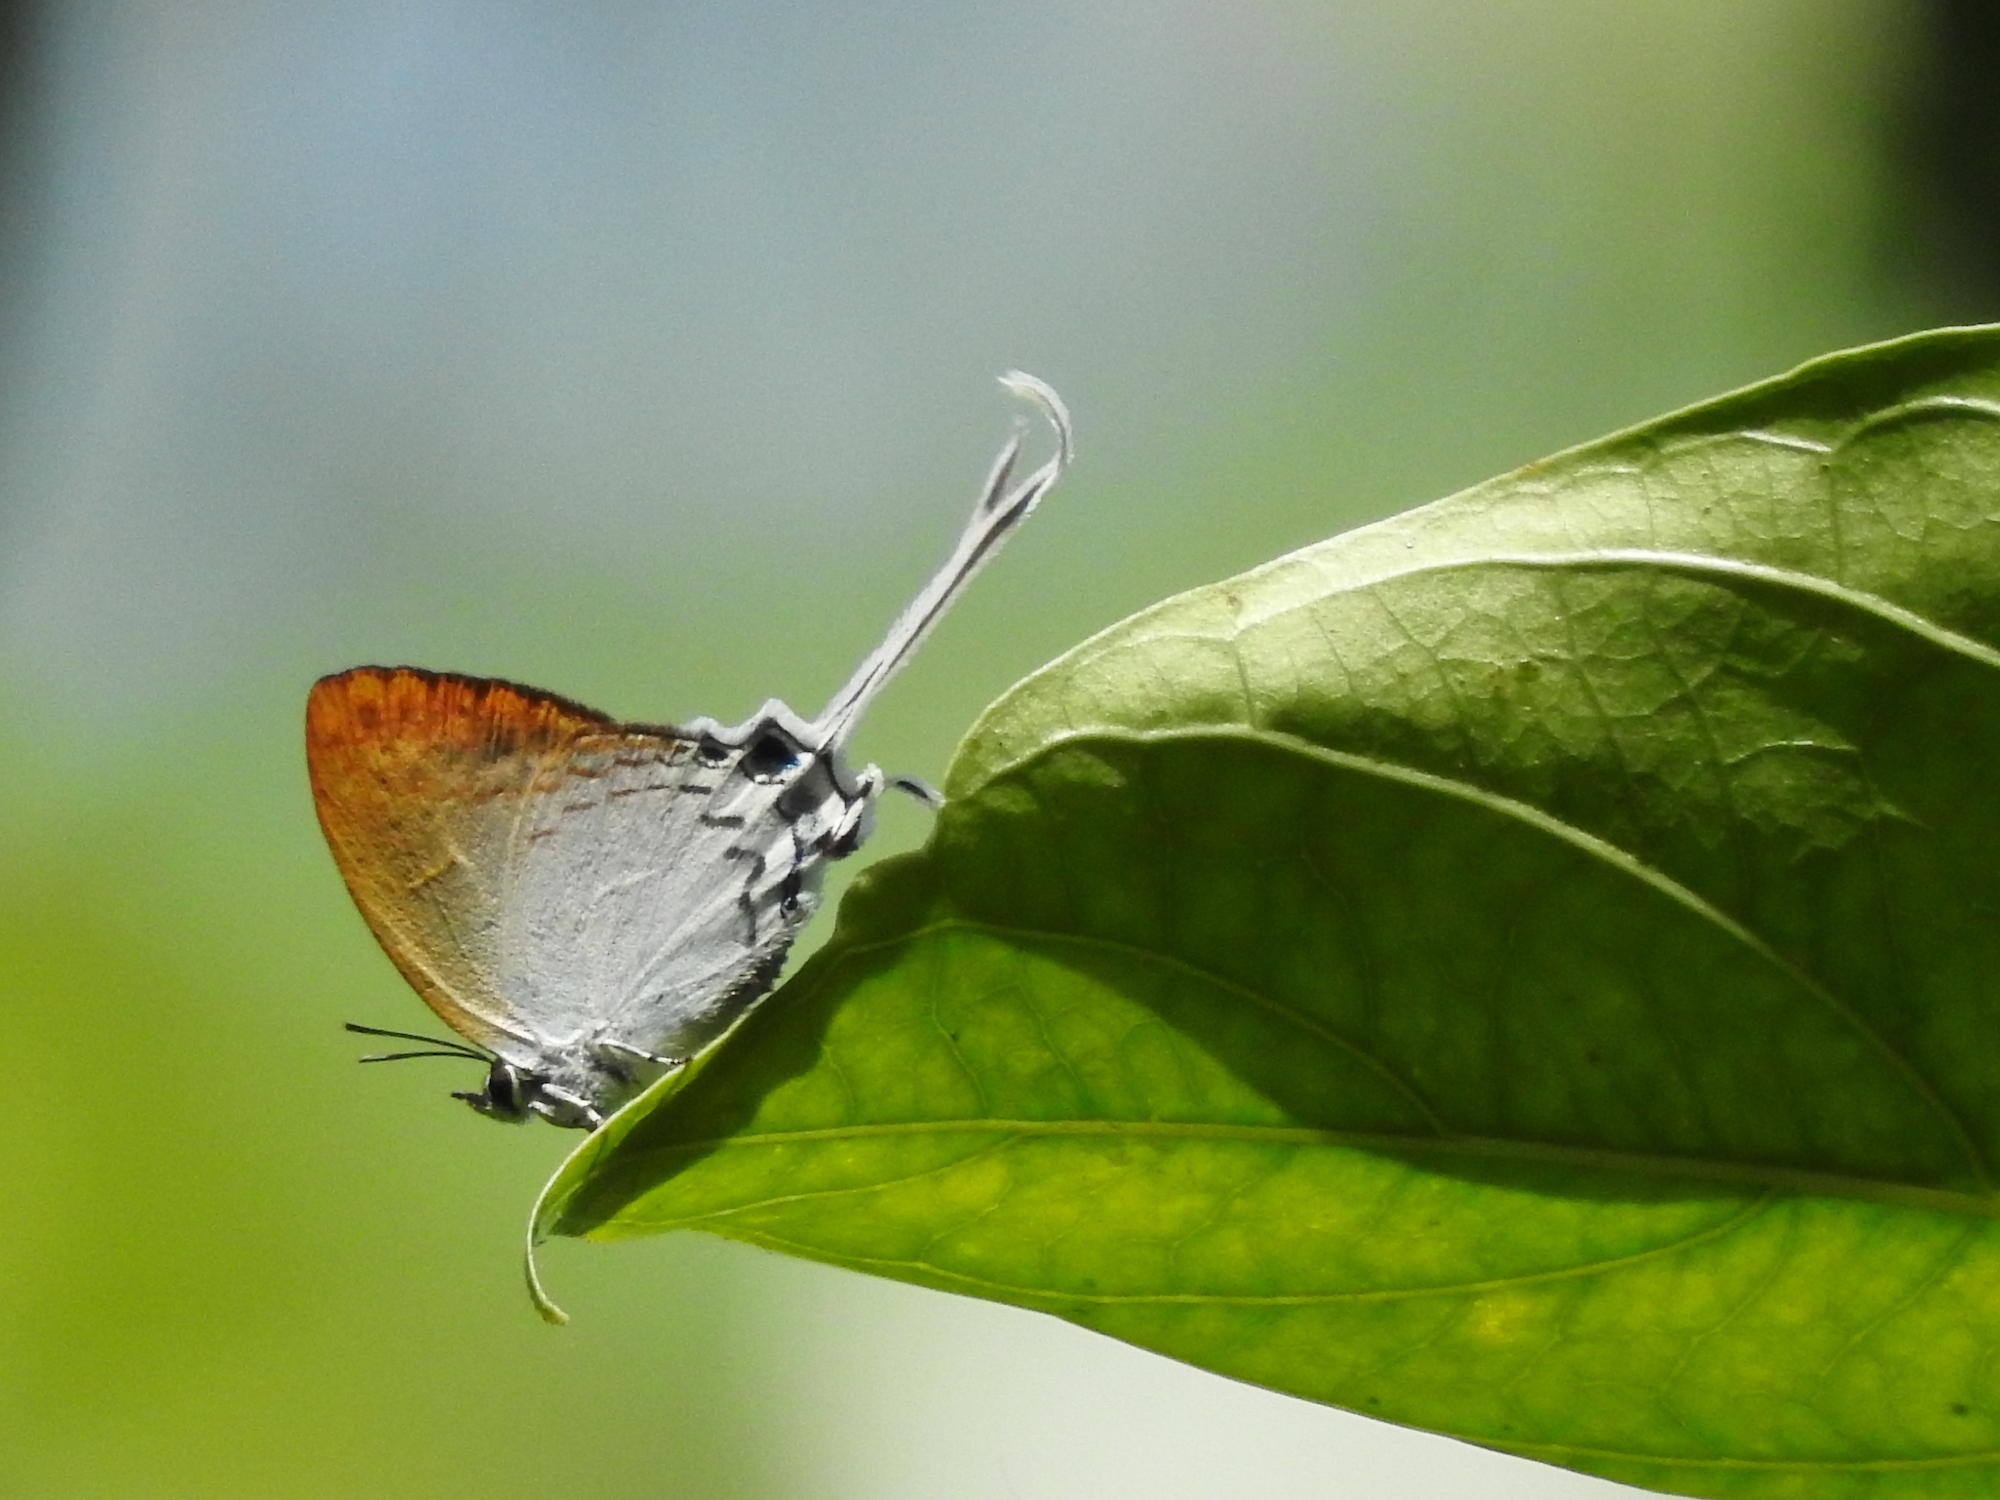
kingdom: Animalia
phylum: Arthropoda
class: Insecta
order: Lepidoptera
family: Lycaenidae
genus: Cheritra
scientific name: Cheritra freja
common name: Common imperial
